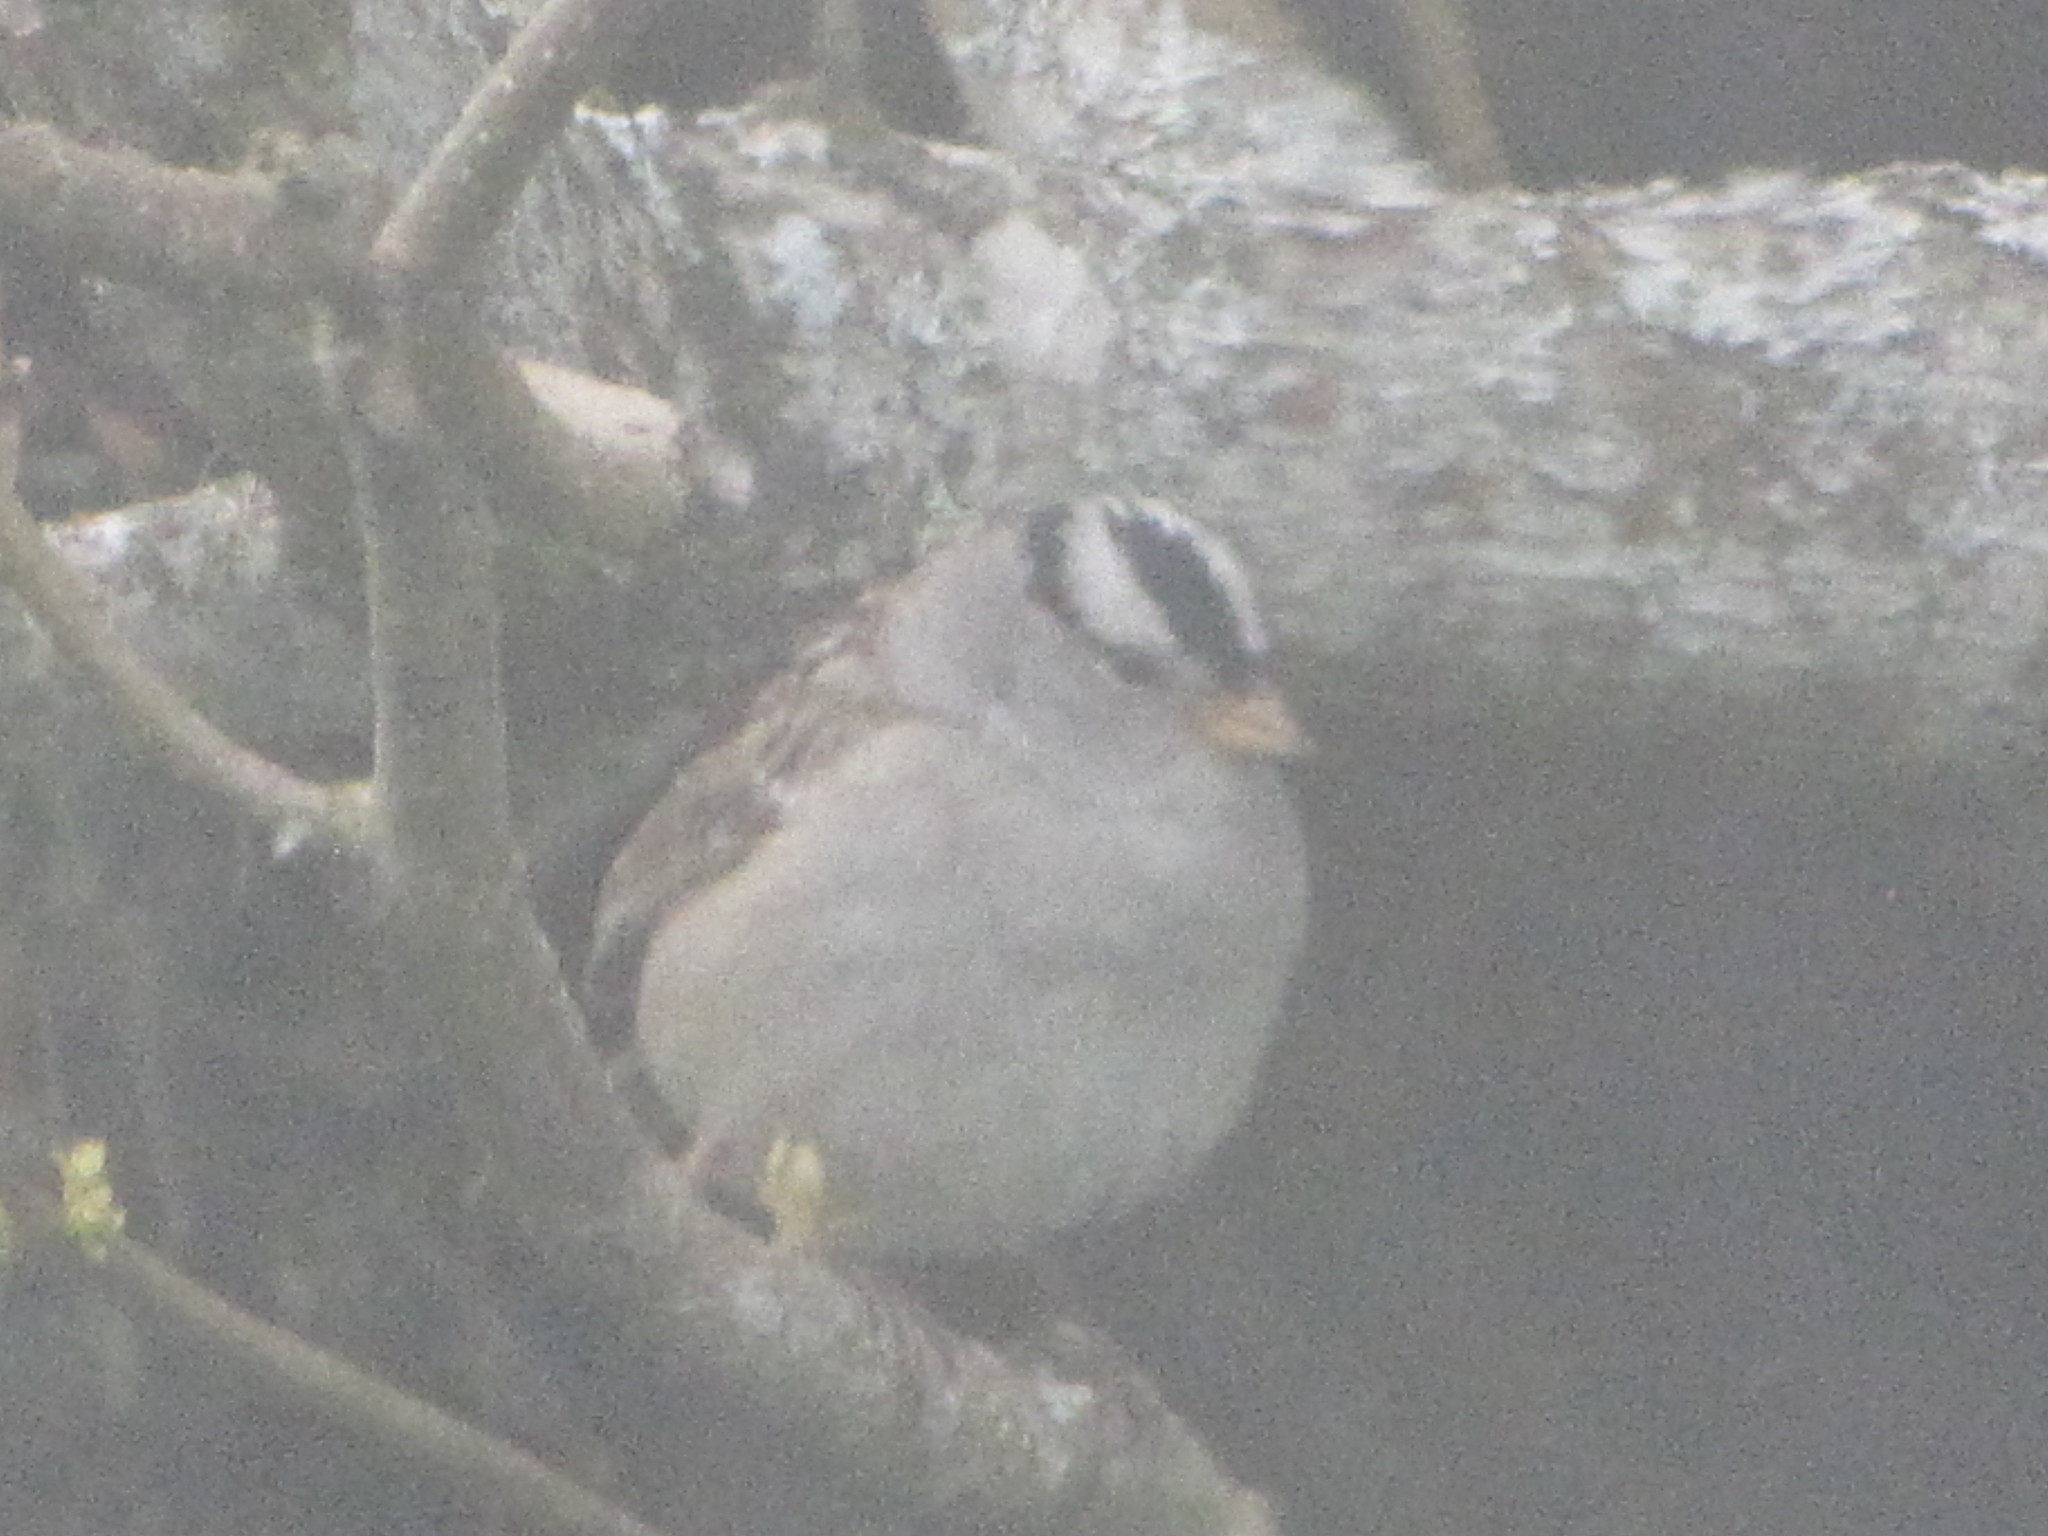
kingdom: Animalia
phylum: Chordata
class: Aves
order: Passeriformes
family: Passerellidae
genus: Zonotrichia
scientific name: Zonotrichia leucophrys
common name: White-crowned sparrow
